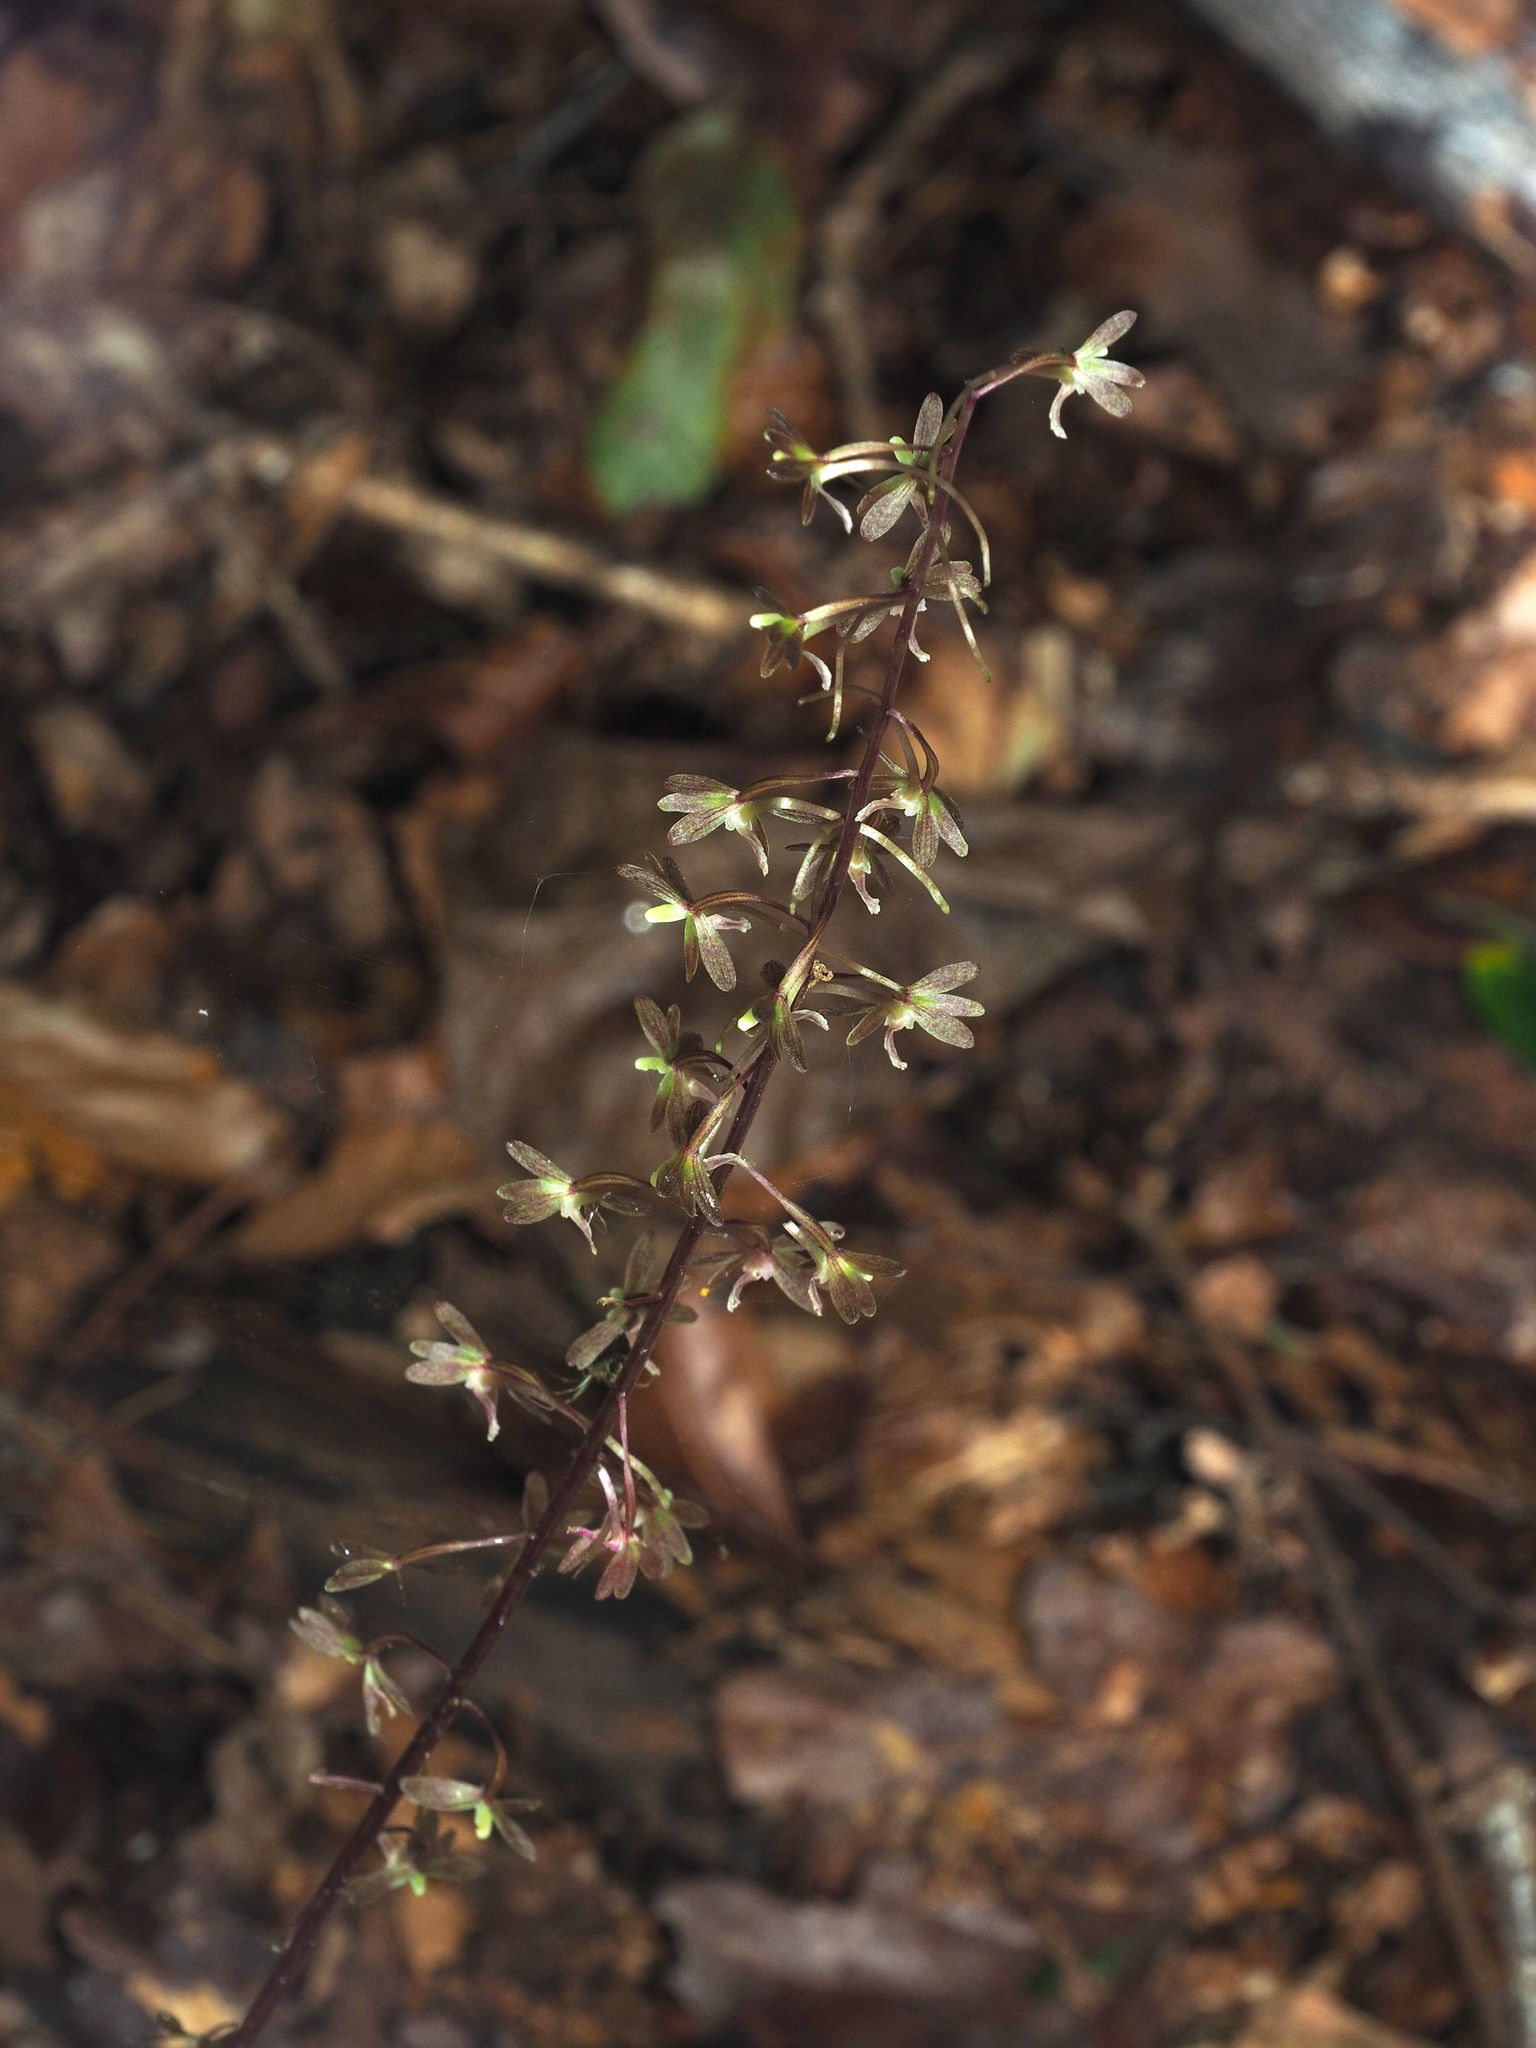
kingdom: Plantae
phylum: Tracheophyta
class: Liliopsida
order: Asparagales
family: Orchidaceae
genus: Tipularia
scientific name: Tipularia discolor
